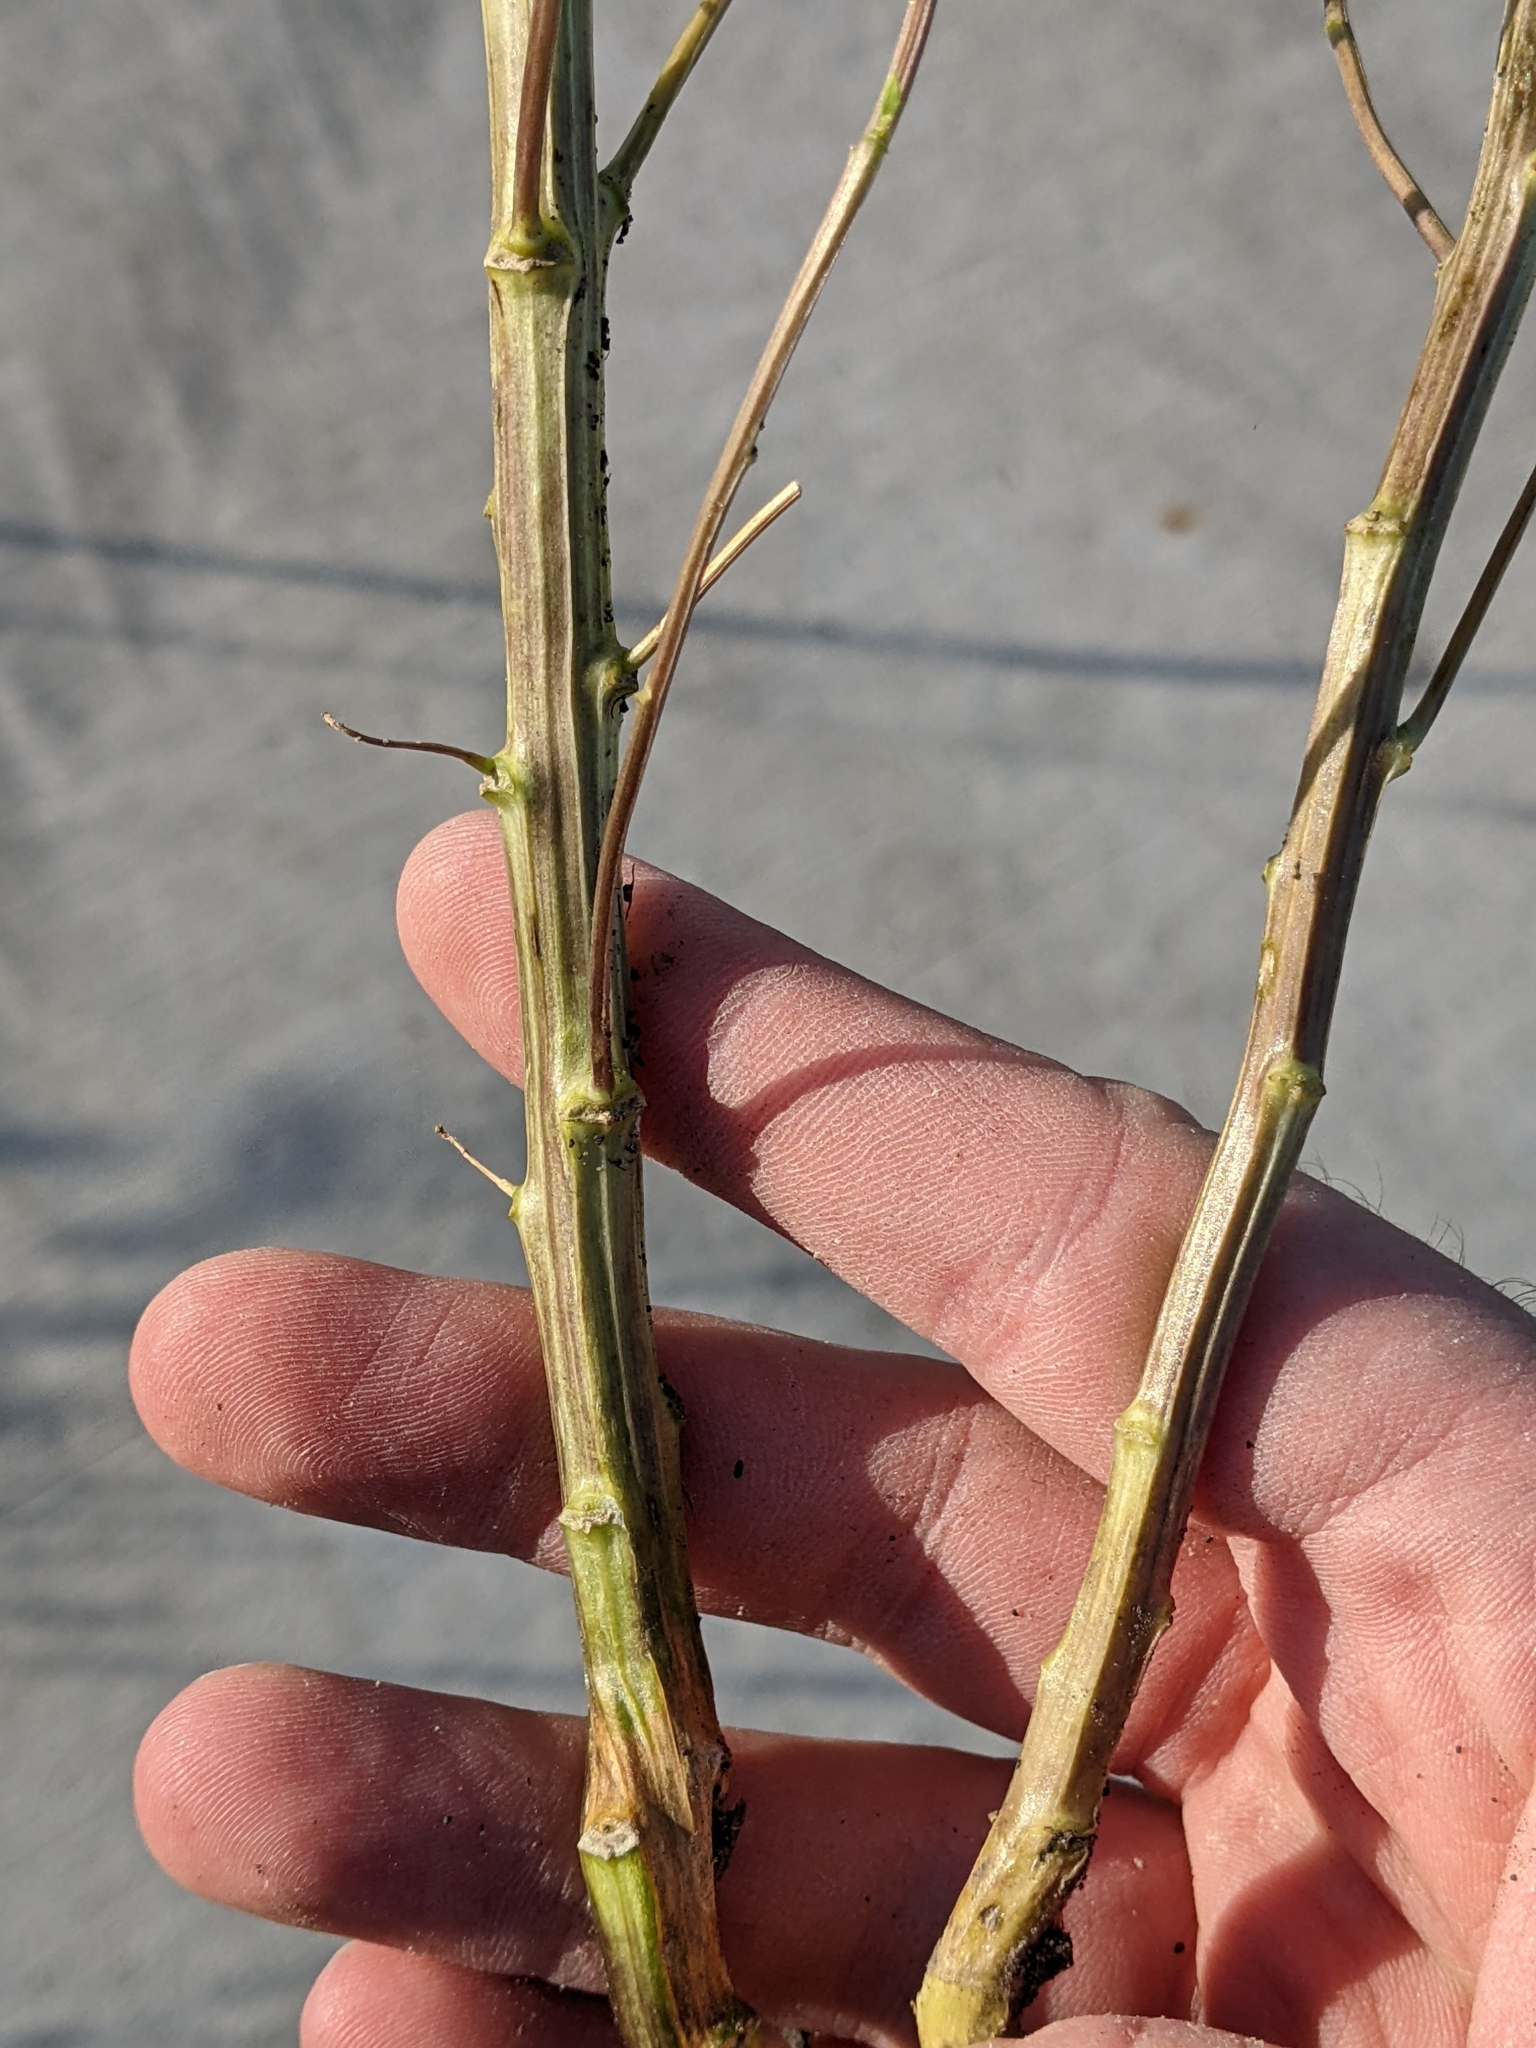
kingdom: Plantae
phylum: Tracheophyta
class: Magnoliopsida
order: Brassicales
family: Brassicaceae
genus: Thlaspi
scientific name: Thlaspi arvense
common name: Field pennycress
